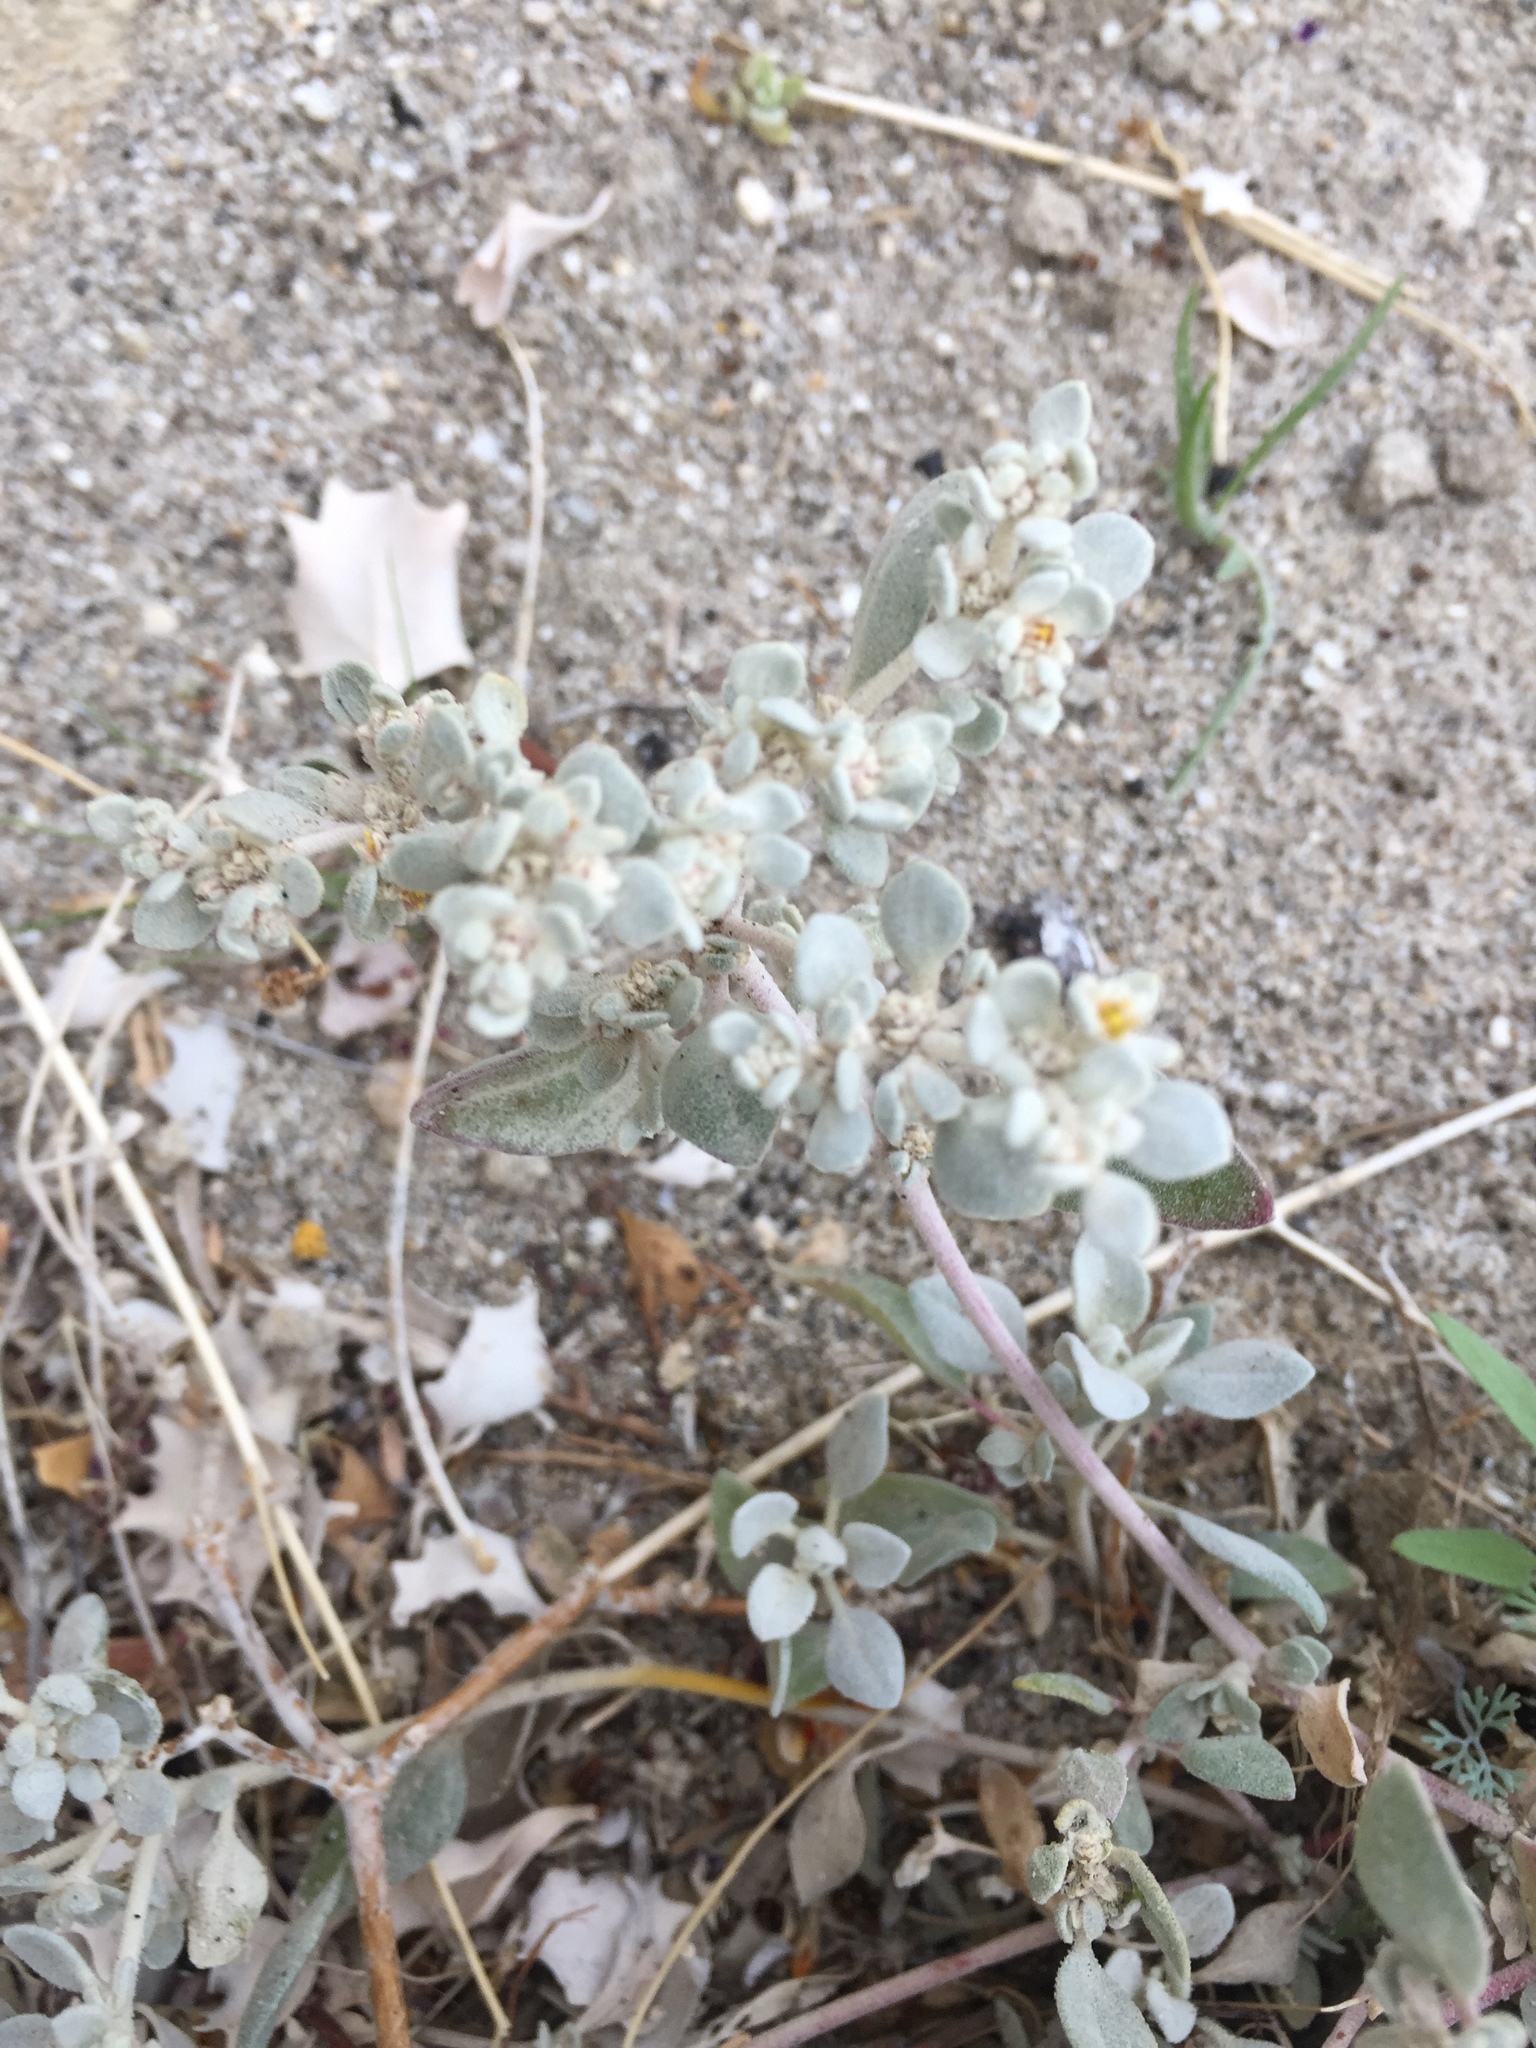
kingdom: Plantae
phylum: Tracheophyta
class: Magnoliopsida
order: Caryophyllales
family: Amaranthaceae
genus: Tidestromia
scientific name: Tidestromia suffruticosa
